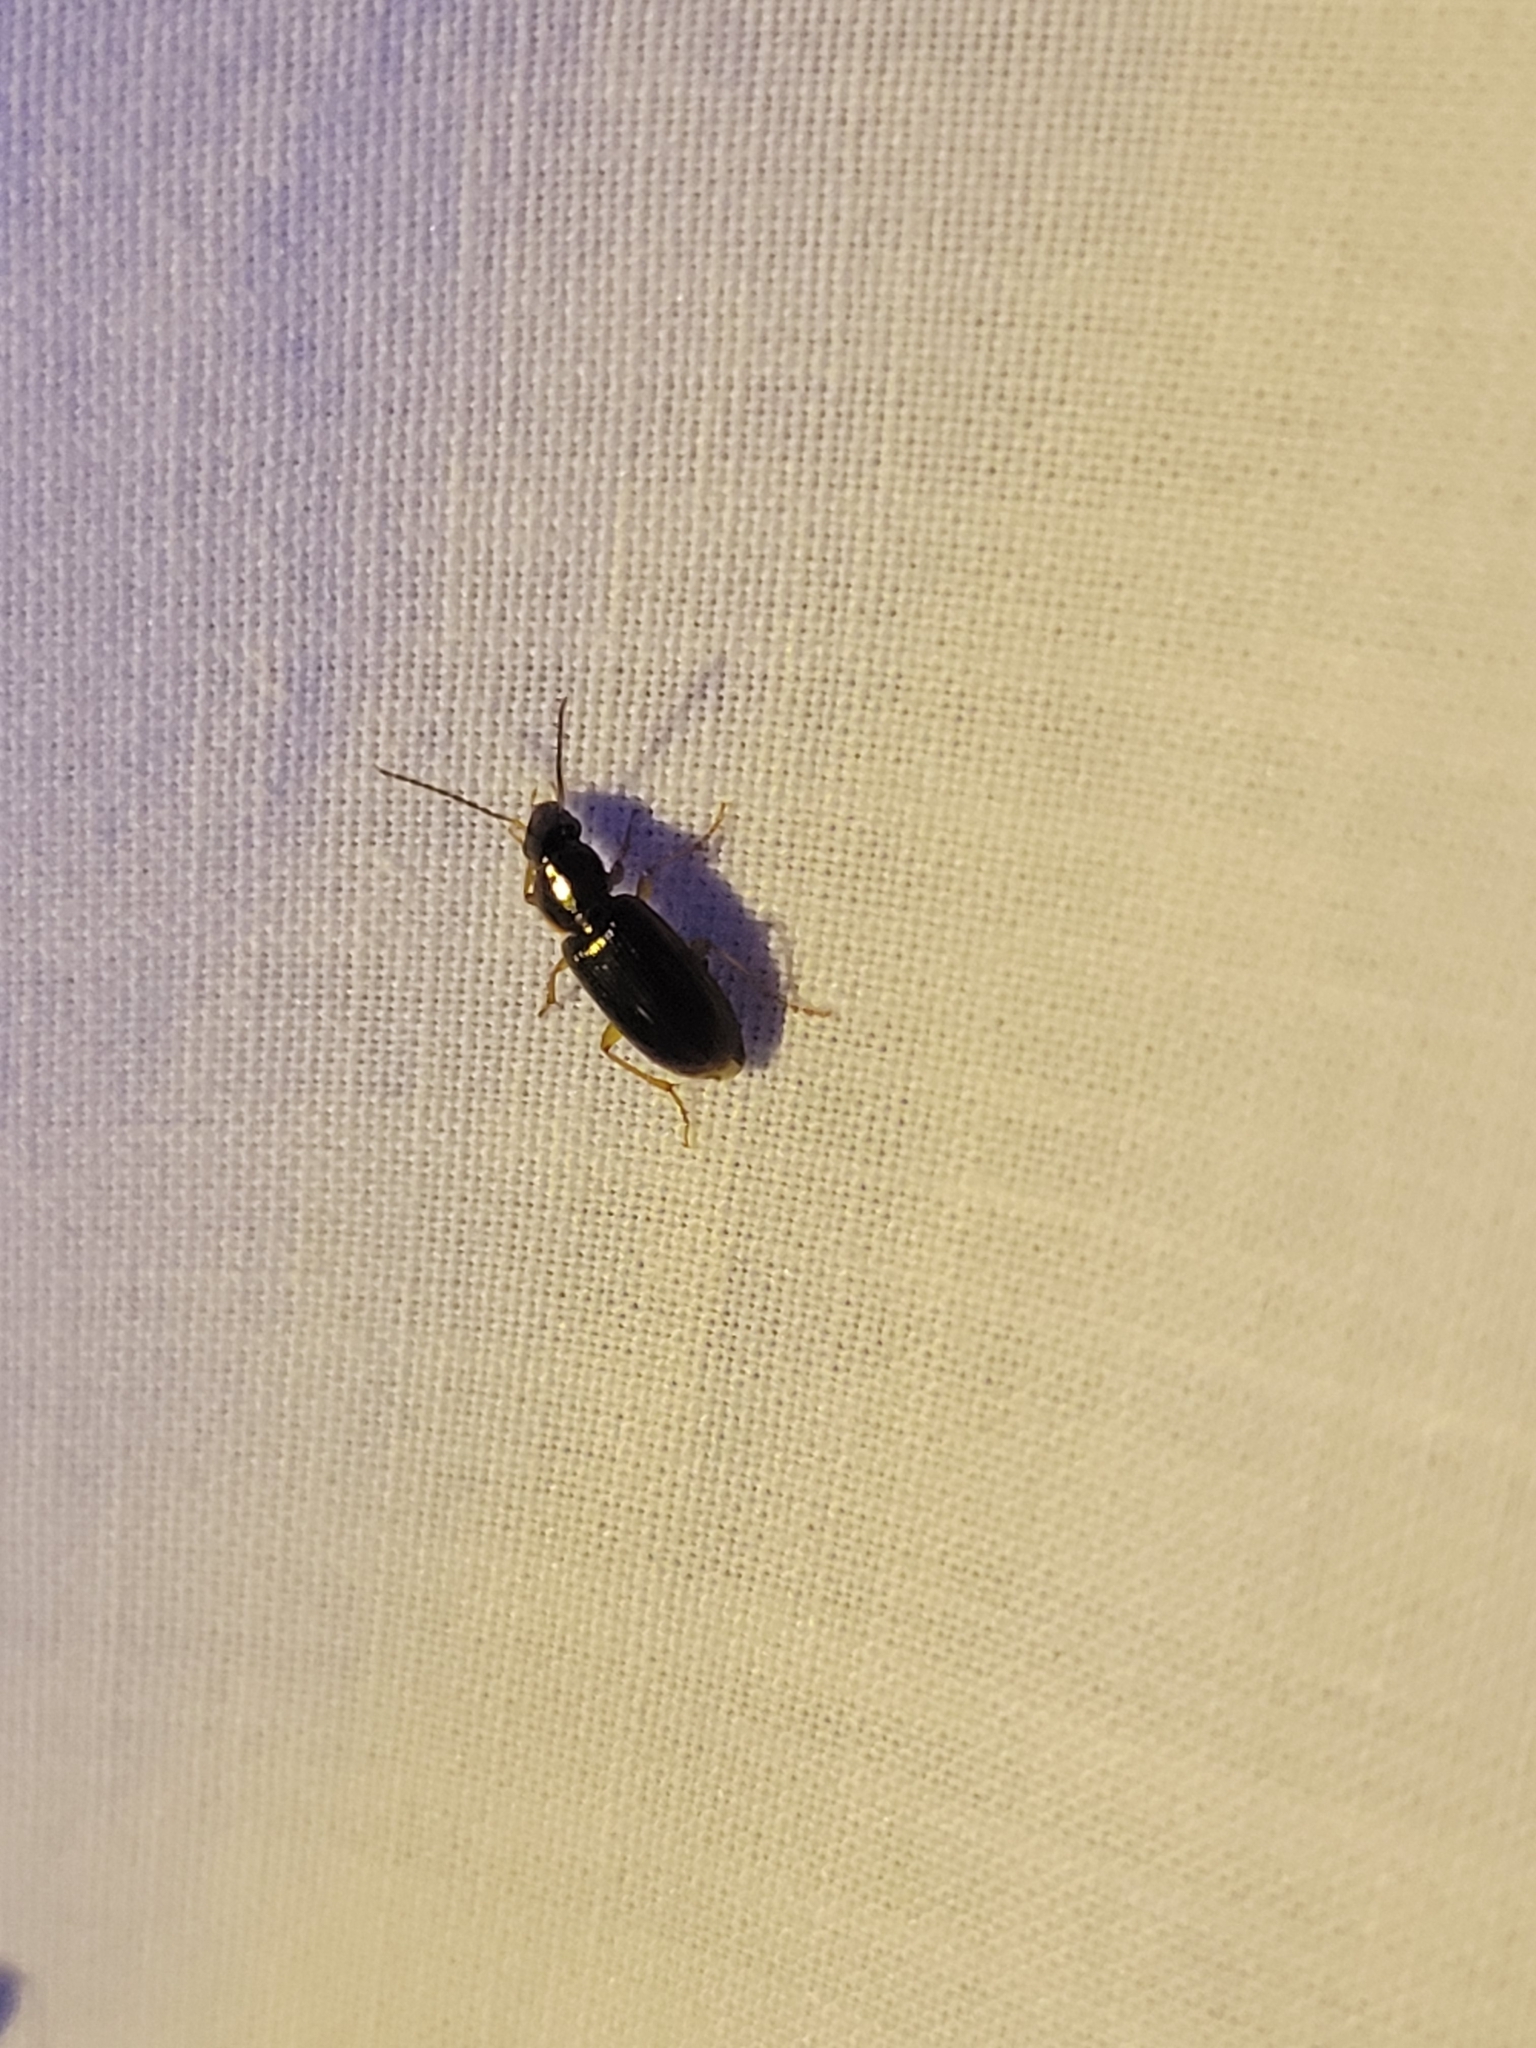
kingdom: Animalia
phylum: Arthropoda
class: Insecta
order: Coleoptera
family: Carabidae
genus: Stenolophus
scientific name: Stenolophus ochropezus
